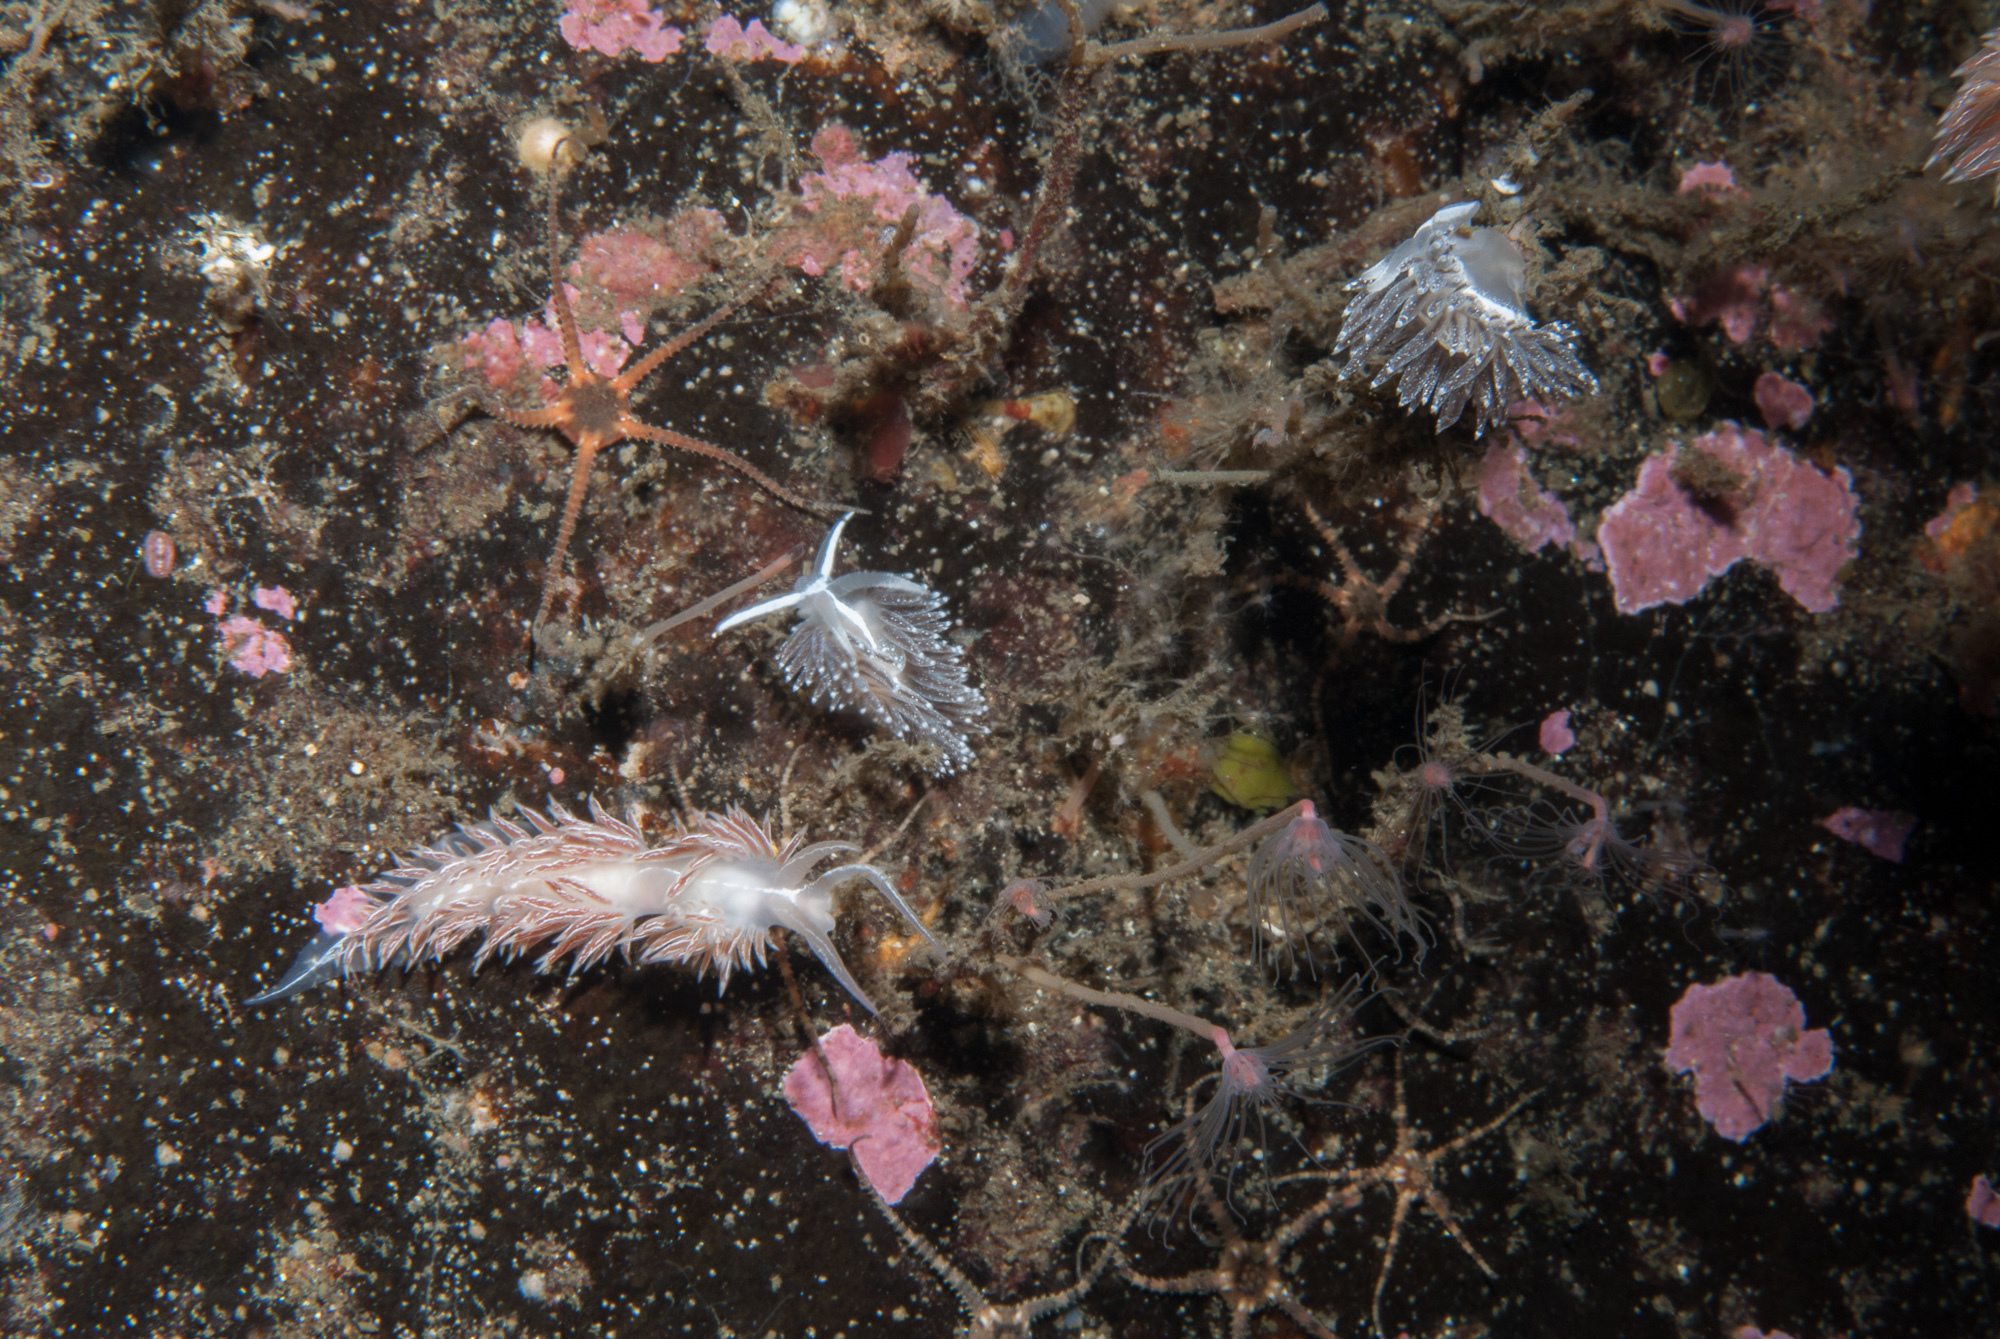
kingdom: Animalia
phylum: Mollusca
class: Gastropoda
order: Nudibranchia
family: Coryphellidae
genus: Coryphella
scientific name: Coryphella chriskaugei
